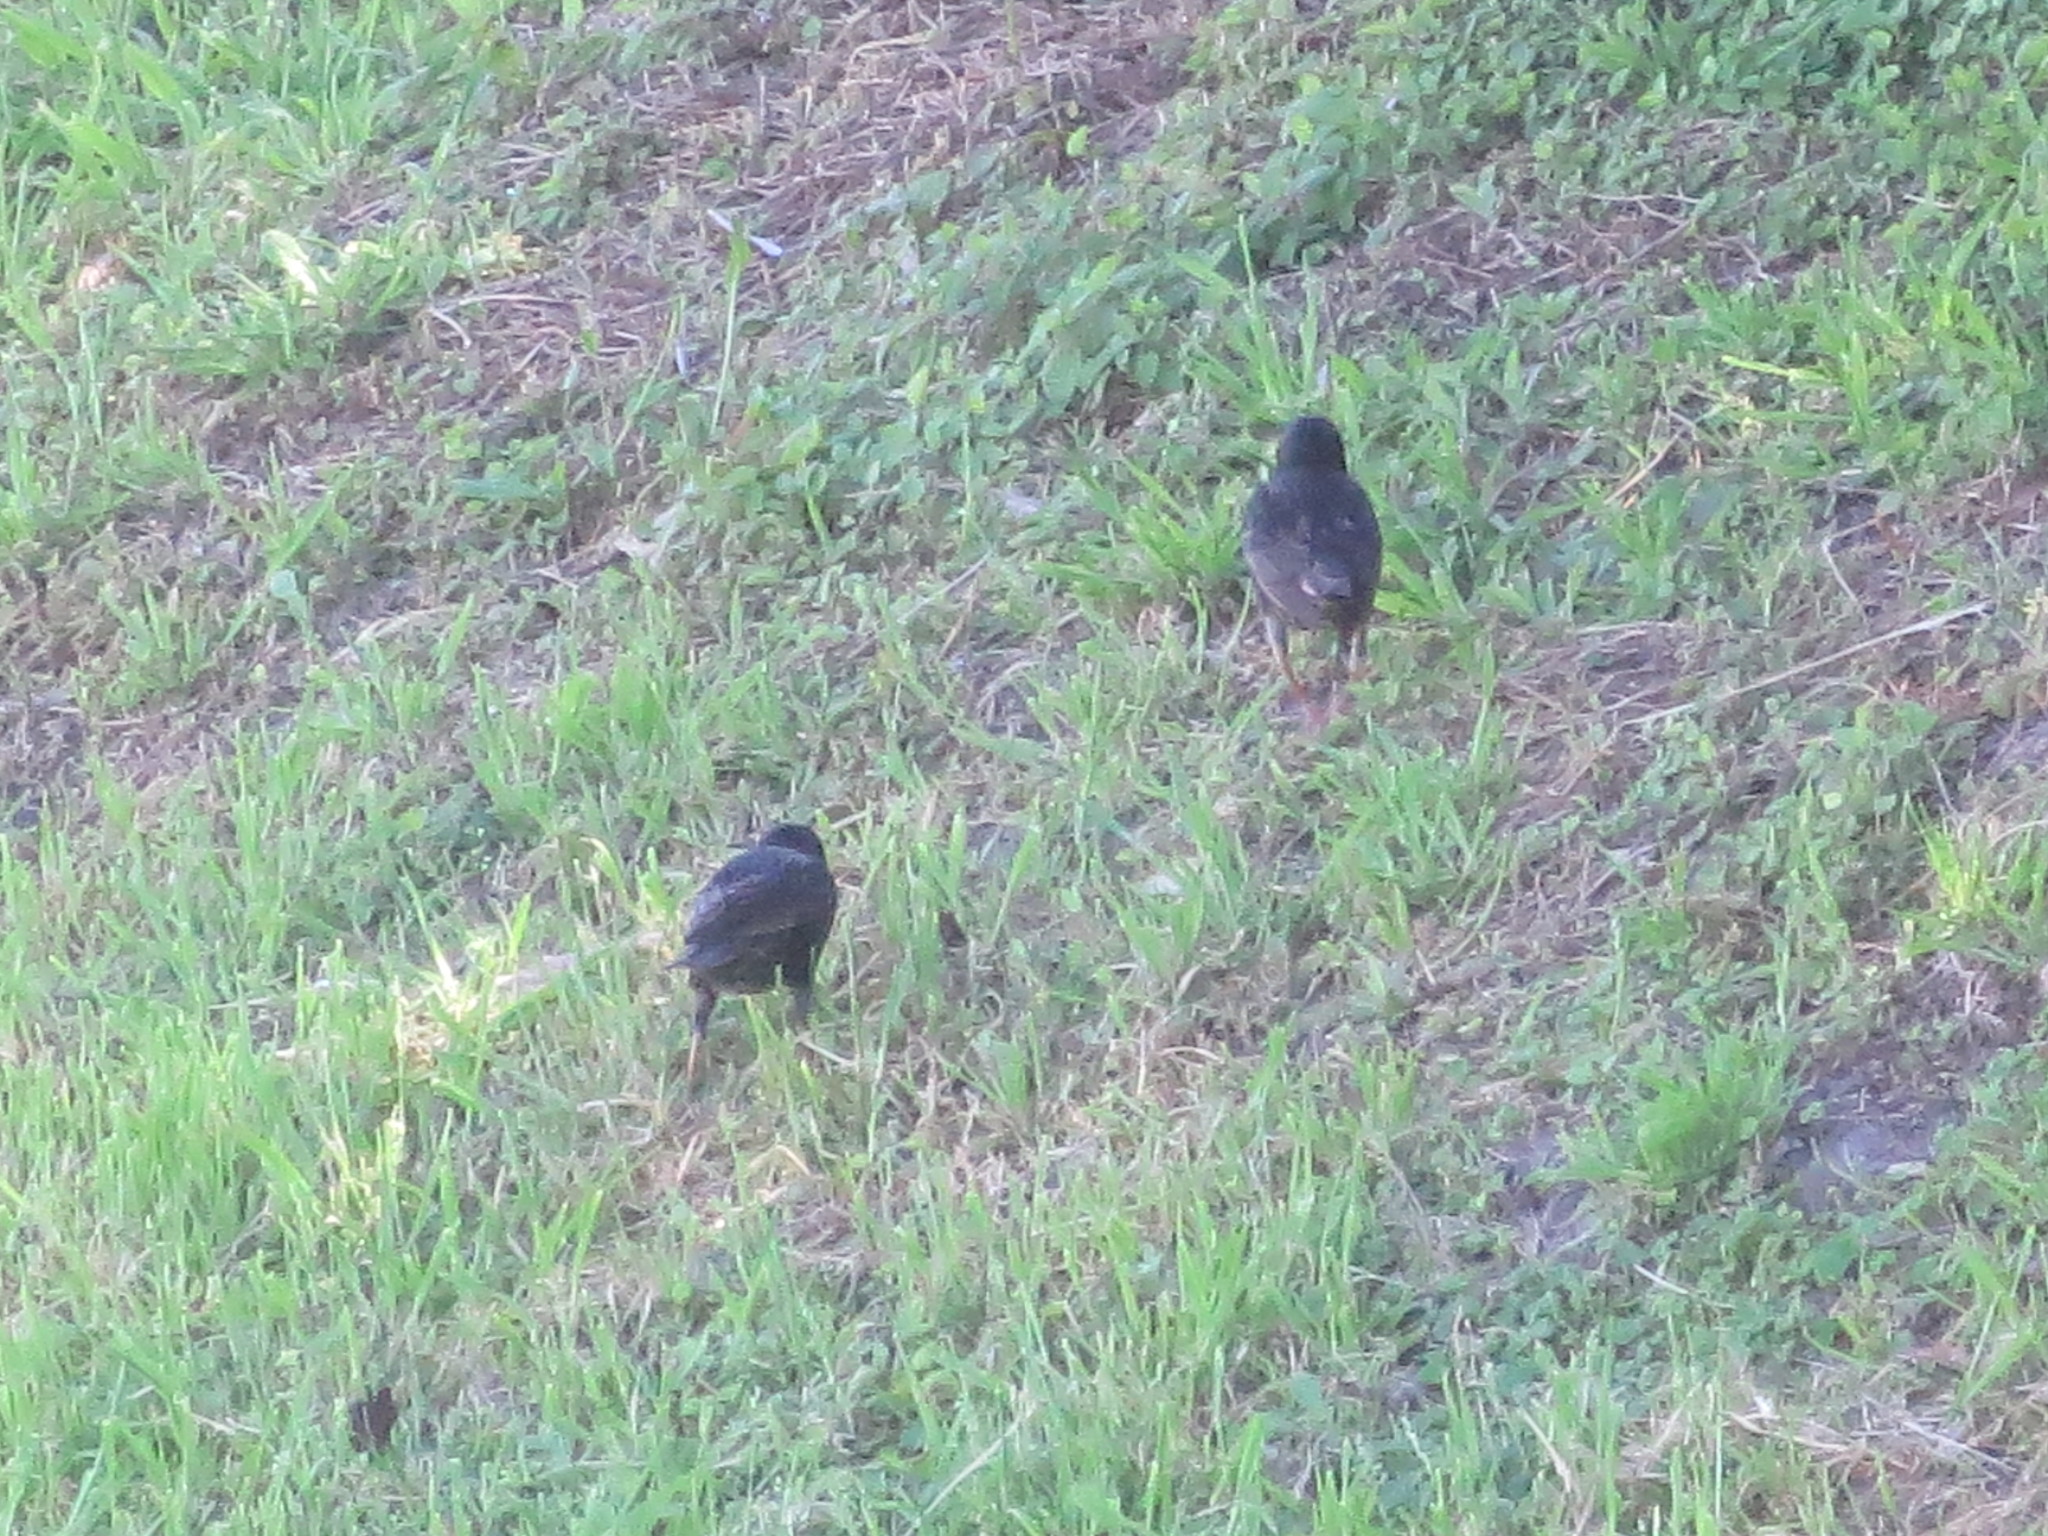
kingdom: Animalia
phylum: Chordata
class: Aves
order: Passeriformes
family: Sturnidae
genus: Sturnus
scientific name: Sturnus vulgaris
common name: Common starling
